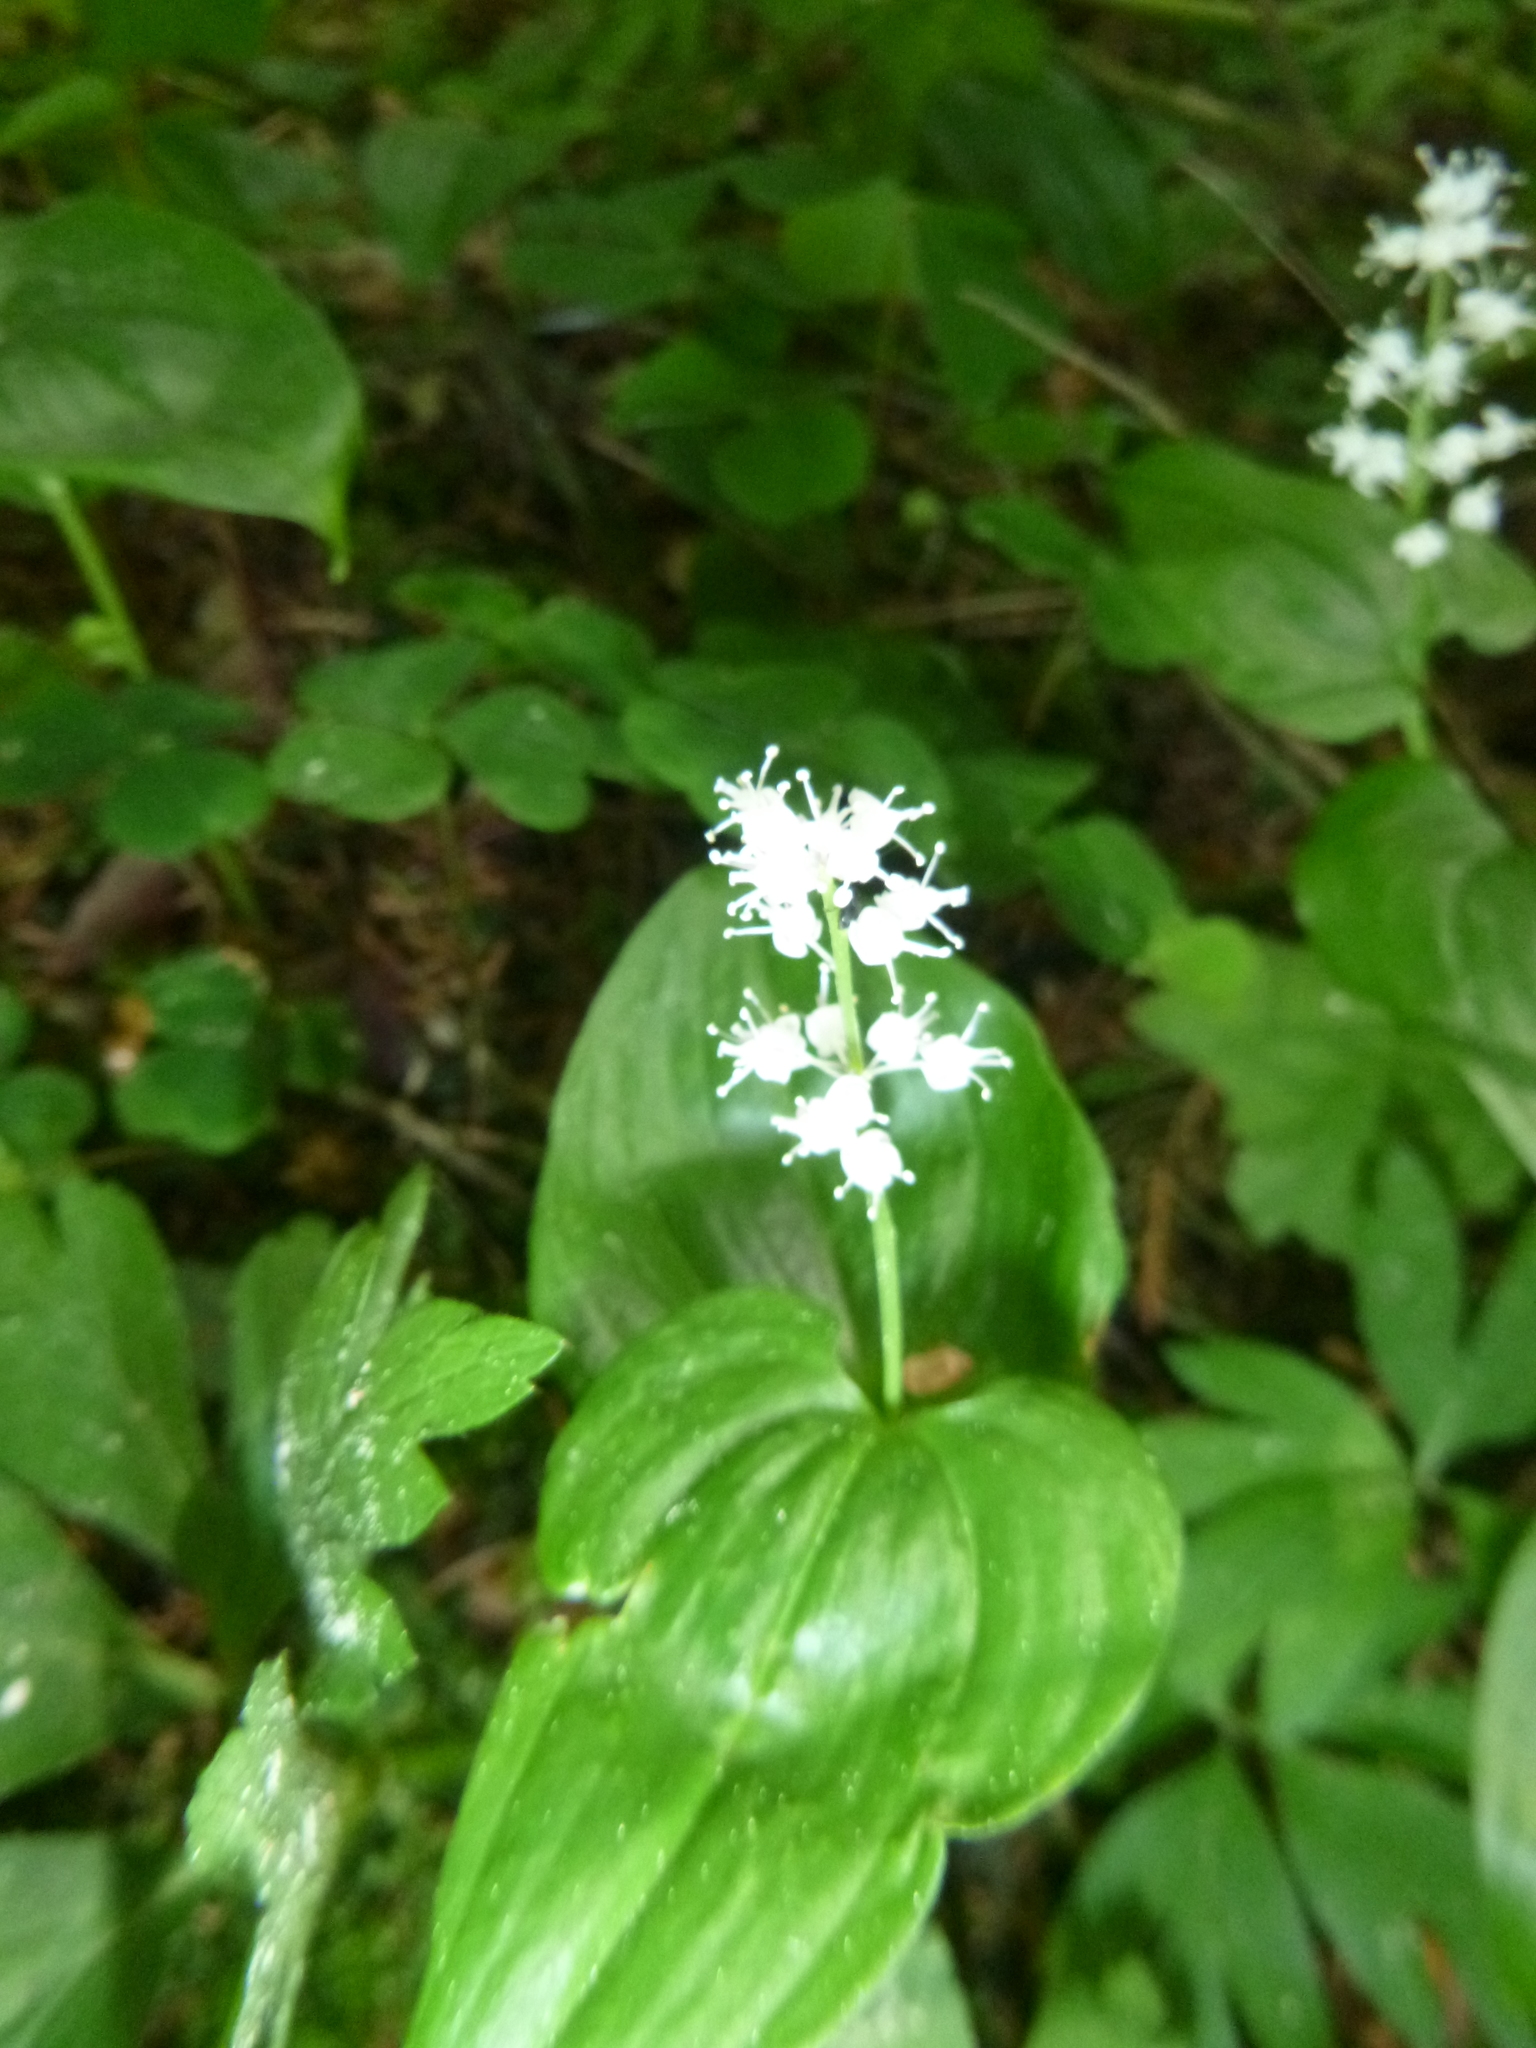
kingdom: Plantae
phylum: Tracheophyta
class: Liliopsida
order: Asparagales
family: Asparagaceae
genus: Maianthemum
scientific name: Maianthemum bifolium
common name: May lily
